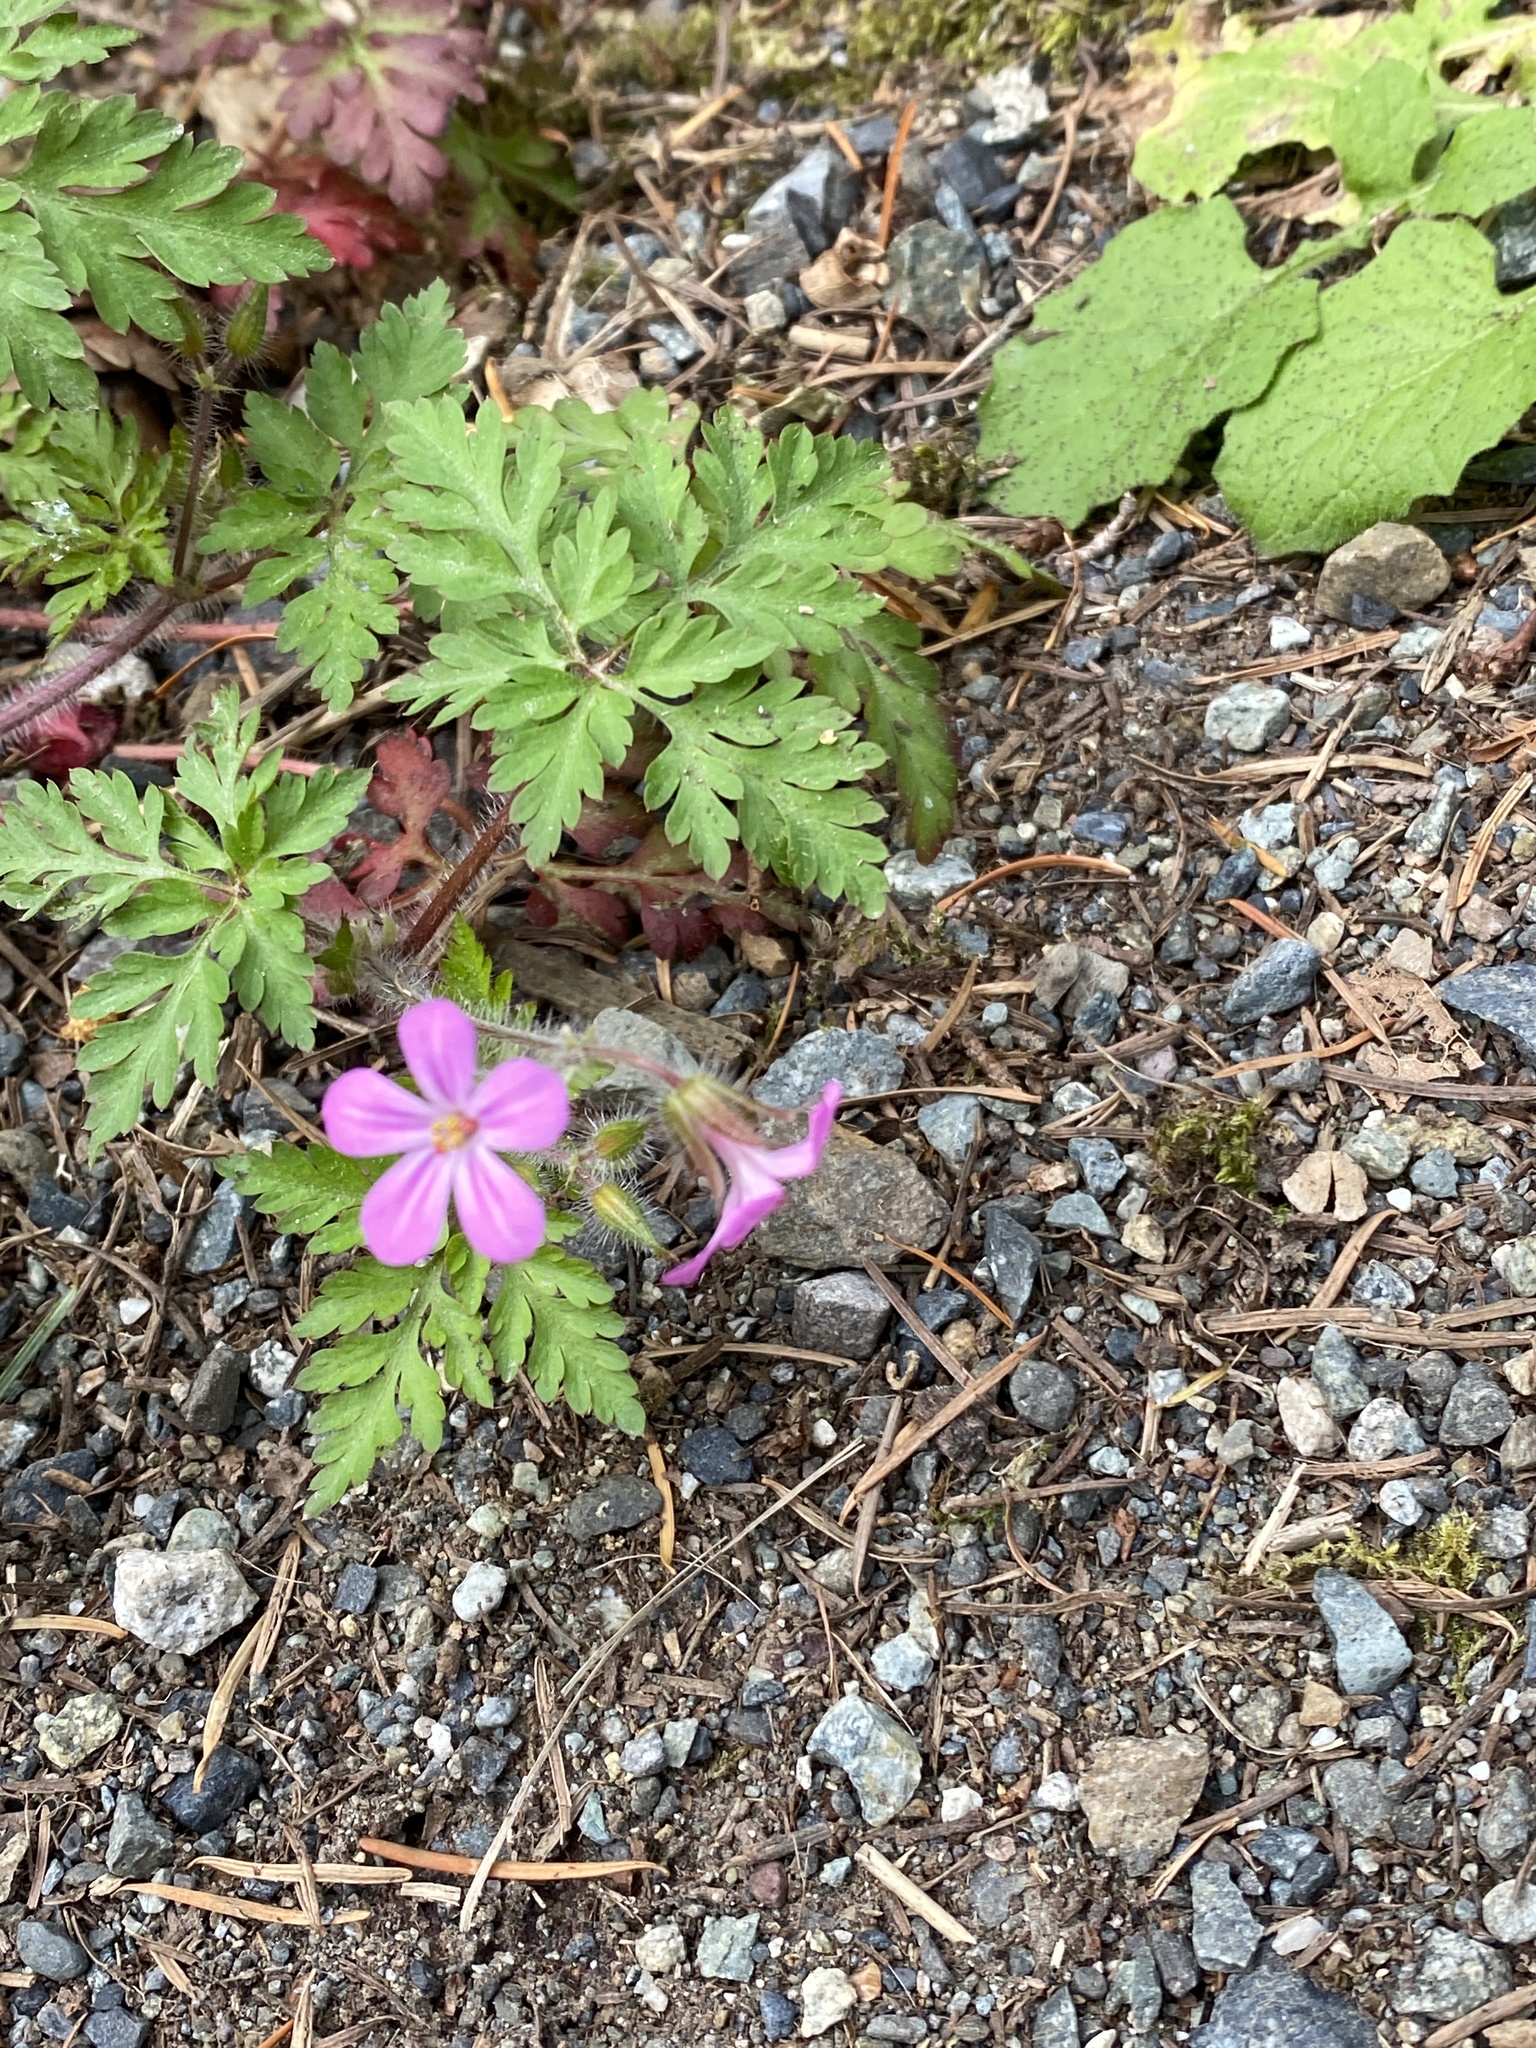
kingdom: Plantae
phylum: Tracheophyta
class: Magnoliopsida
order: Geraniales
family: Geraniaceae
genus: Geranium
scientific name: Geranium robertianum
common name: Herb-robert
